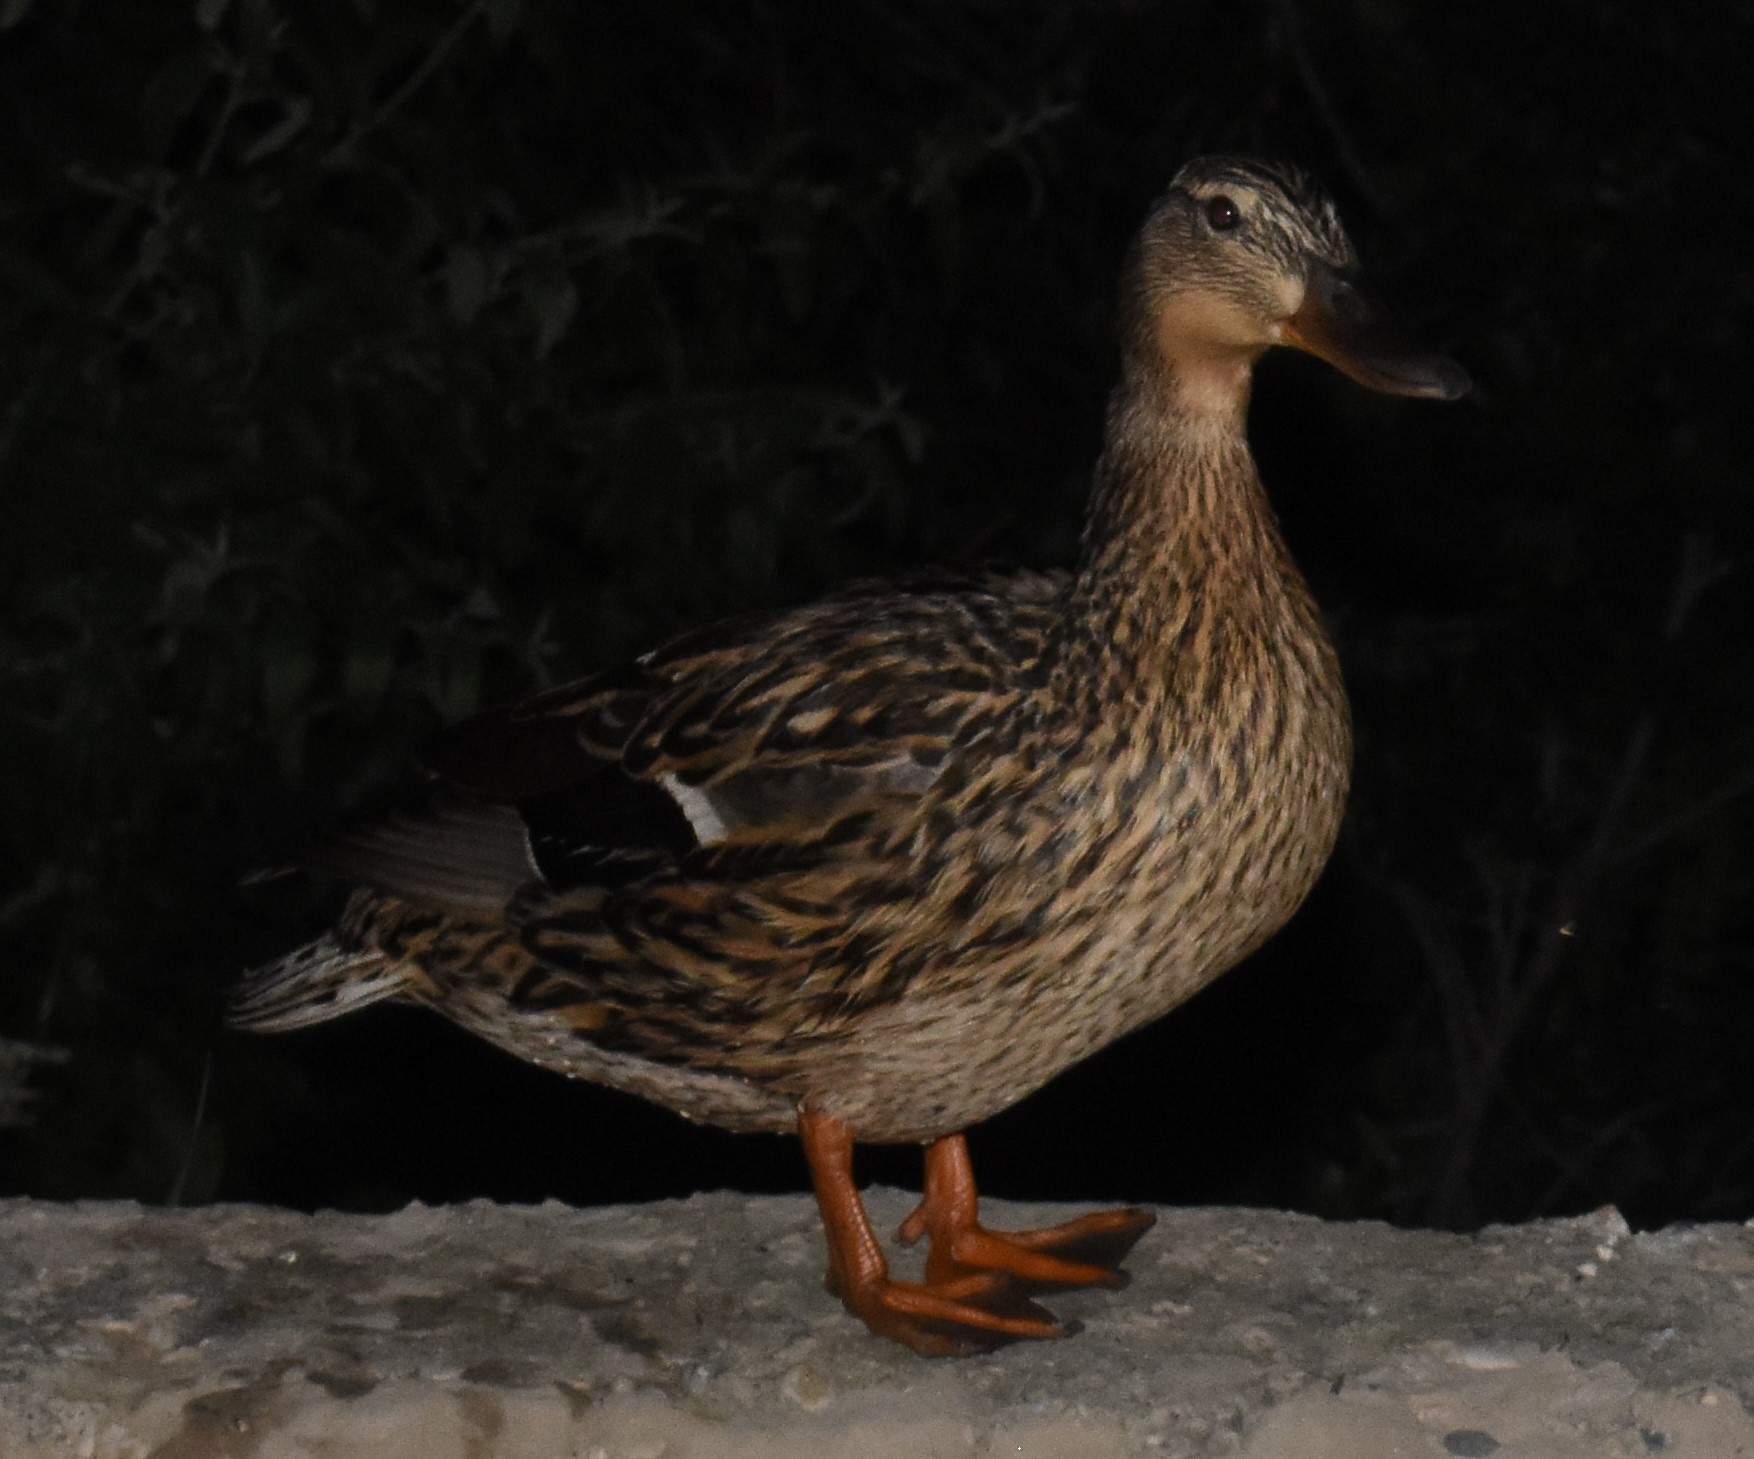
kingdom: Animalia
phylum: Chordata
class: Aves
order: Anseriformes
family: Anatidae
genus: Anas
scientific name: Anas platyrhynchos
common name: Mallard
